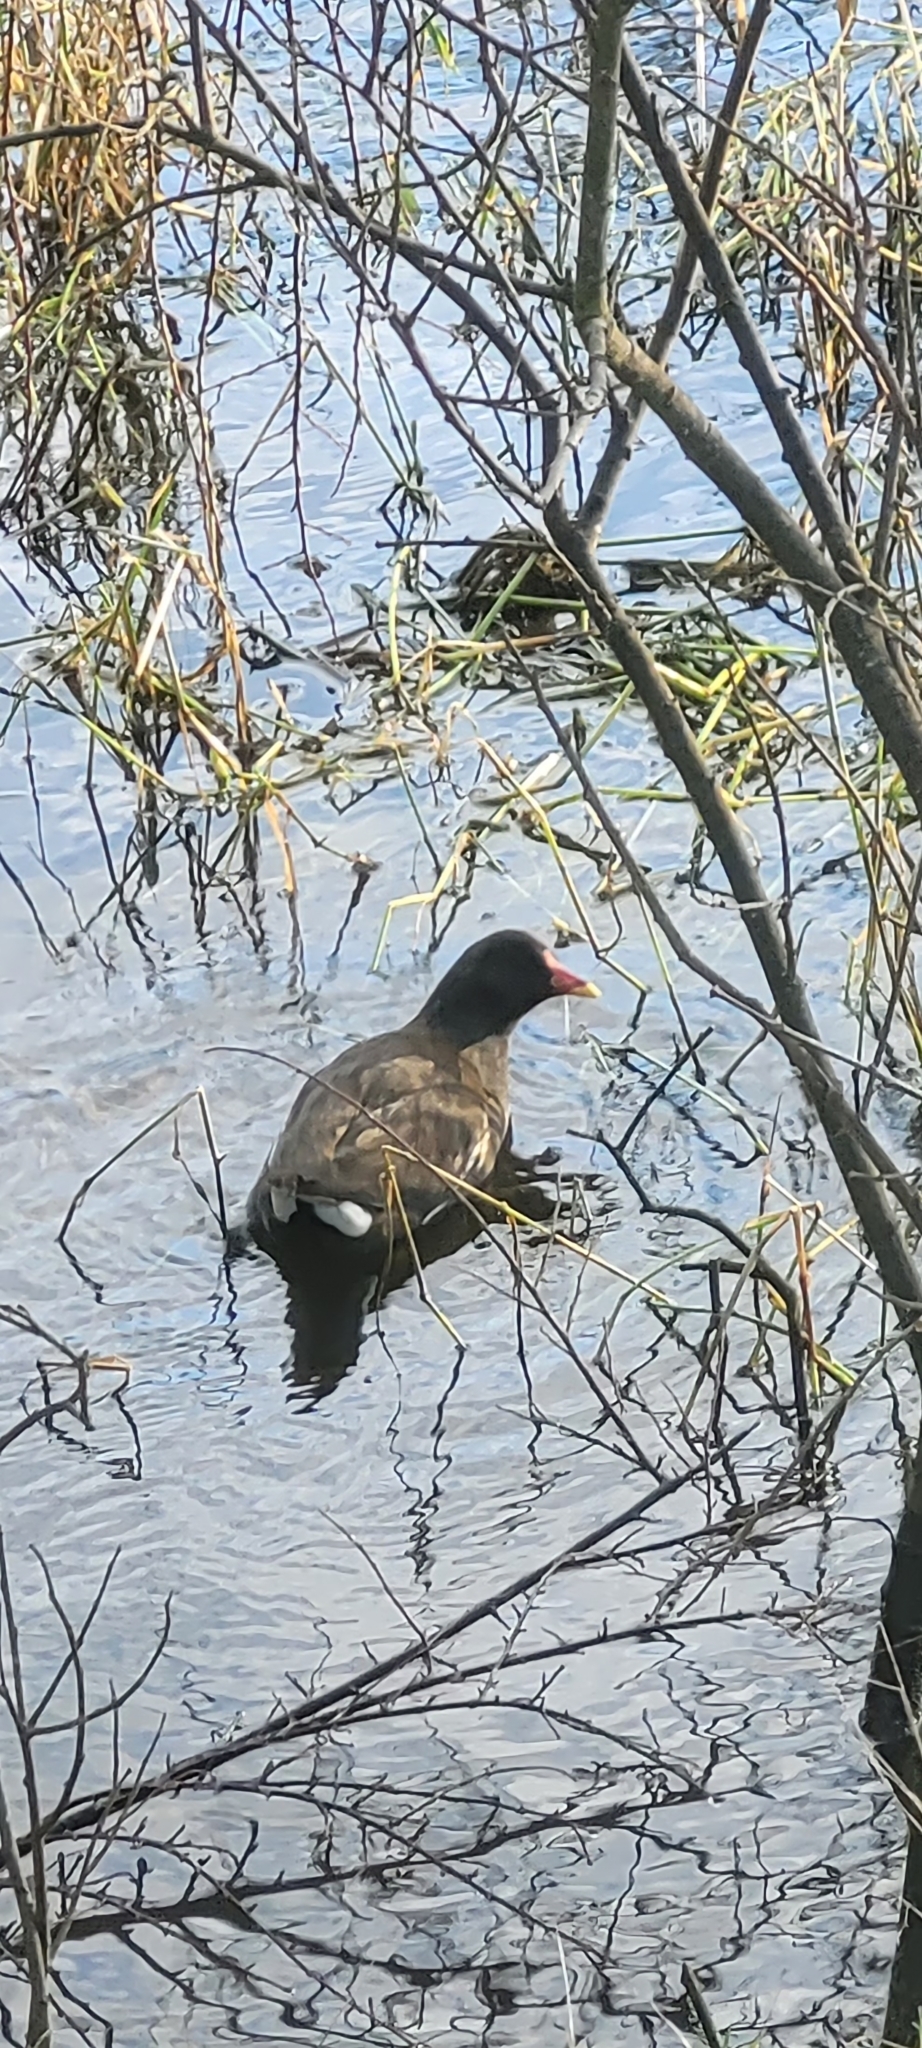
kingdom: Animalia
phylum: Chordata
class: Aves
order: Gruiformes
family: Rallidae
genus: Gallinula
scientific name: Gallinula chloropus
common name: Common moorhen
